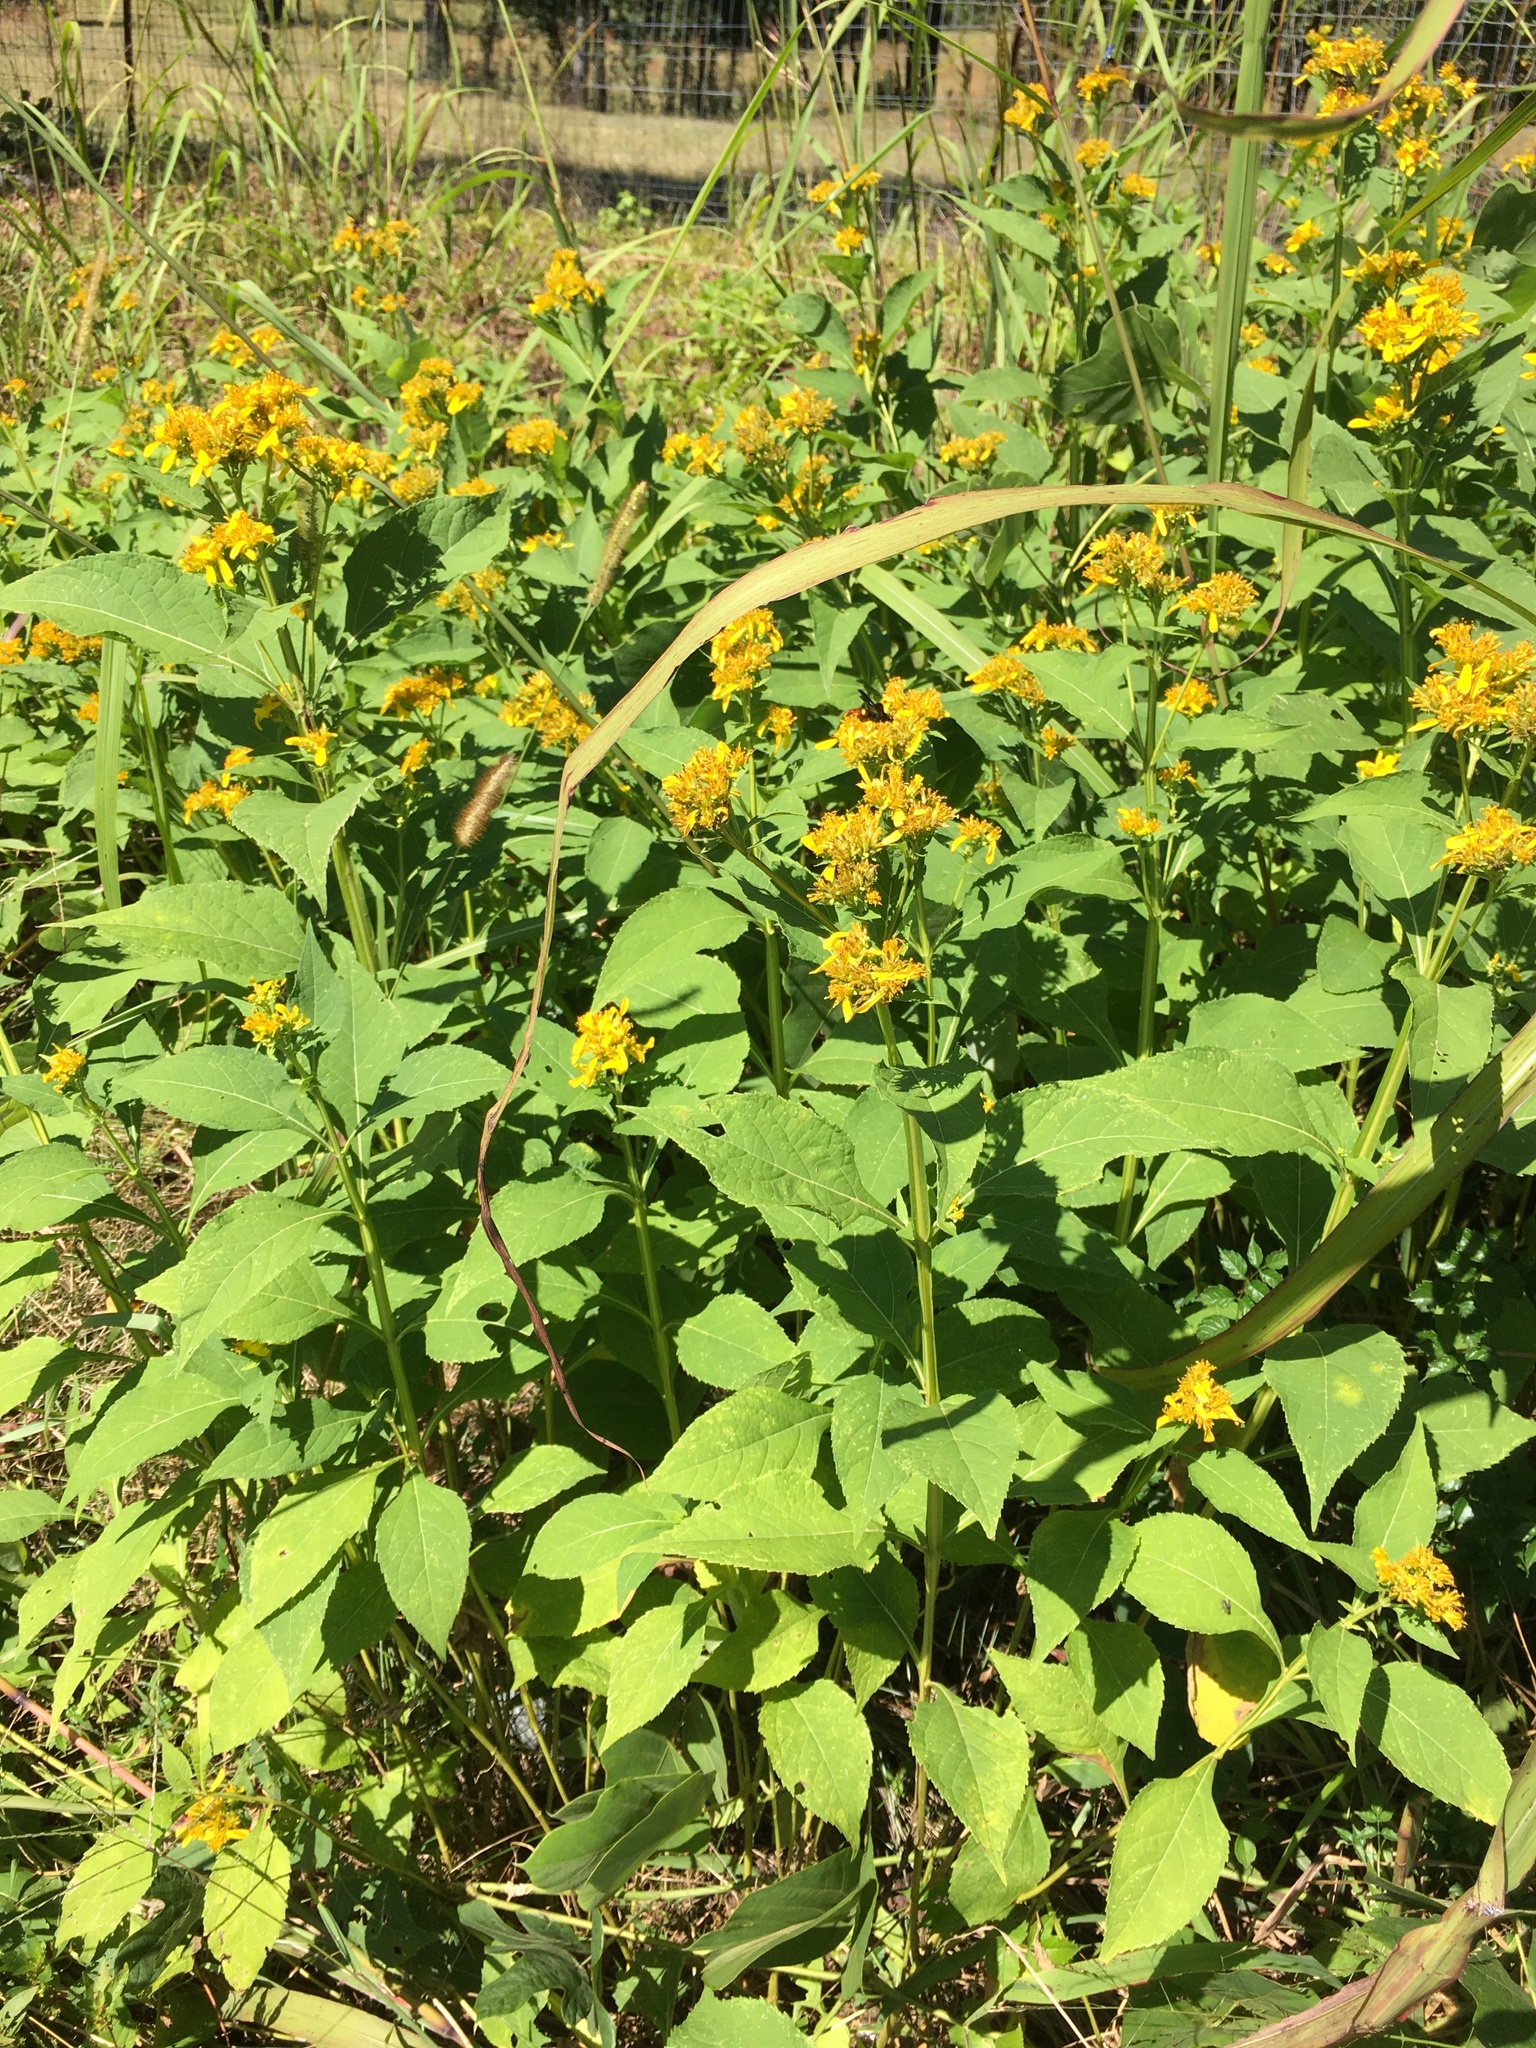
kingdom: Plantae
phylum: Tracheophyta
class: Magnoliopsida
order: Asterales
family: Asteraceae
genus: Verbesina
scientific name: Verbesina occidentalis
